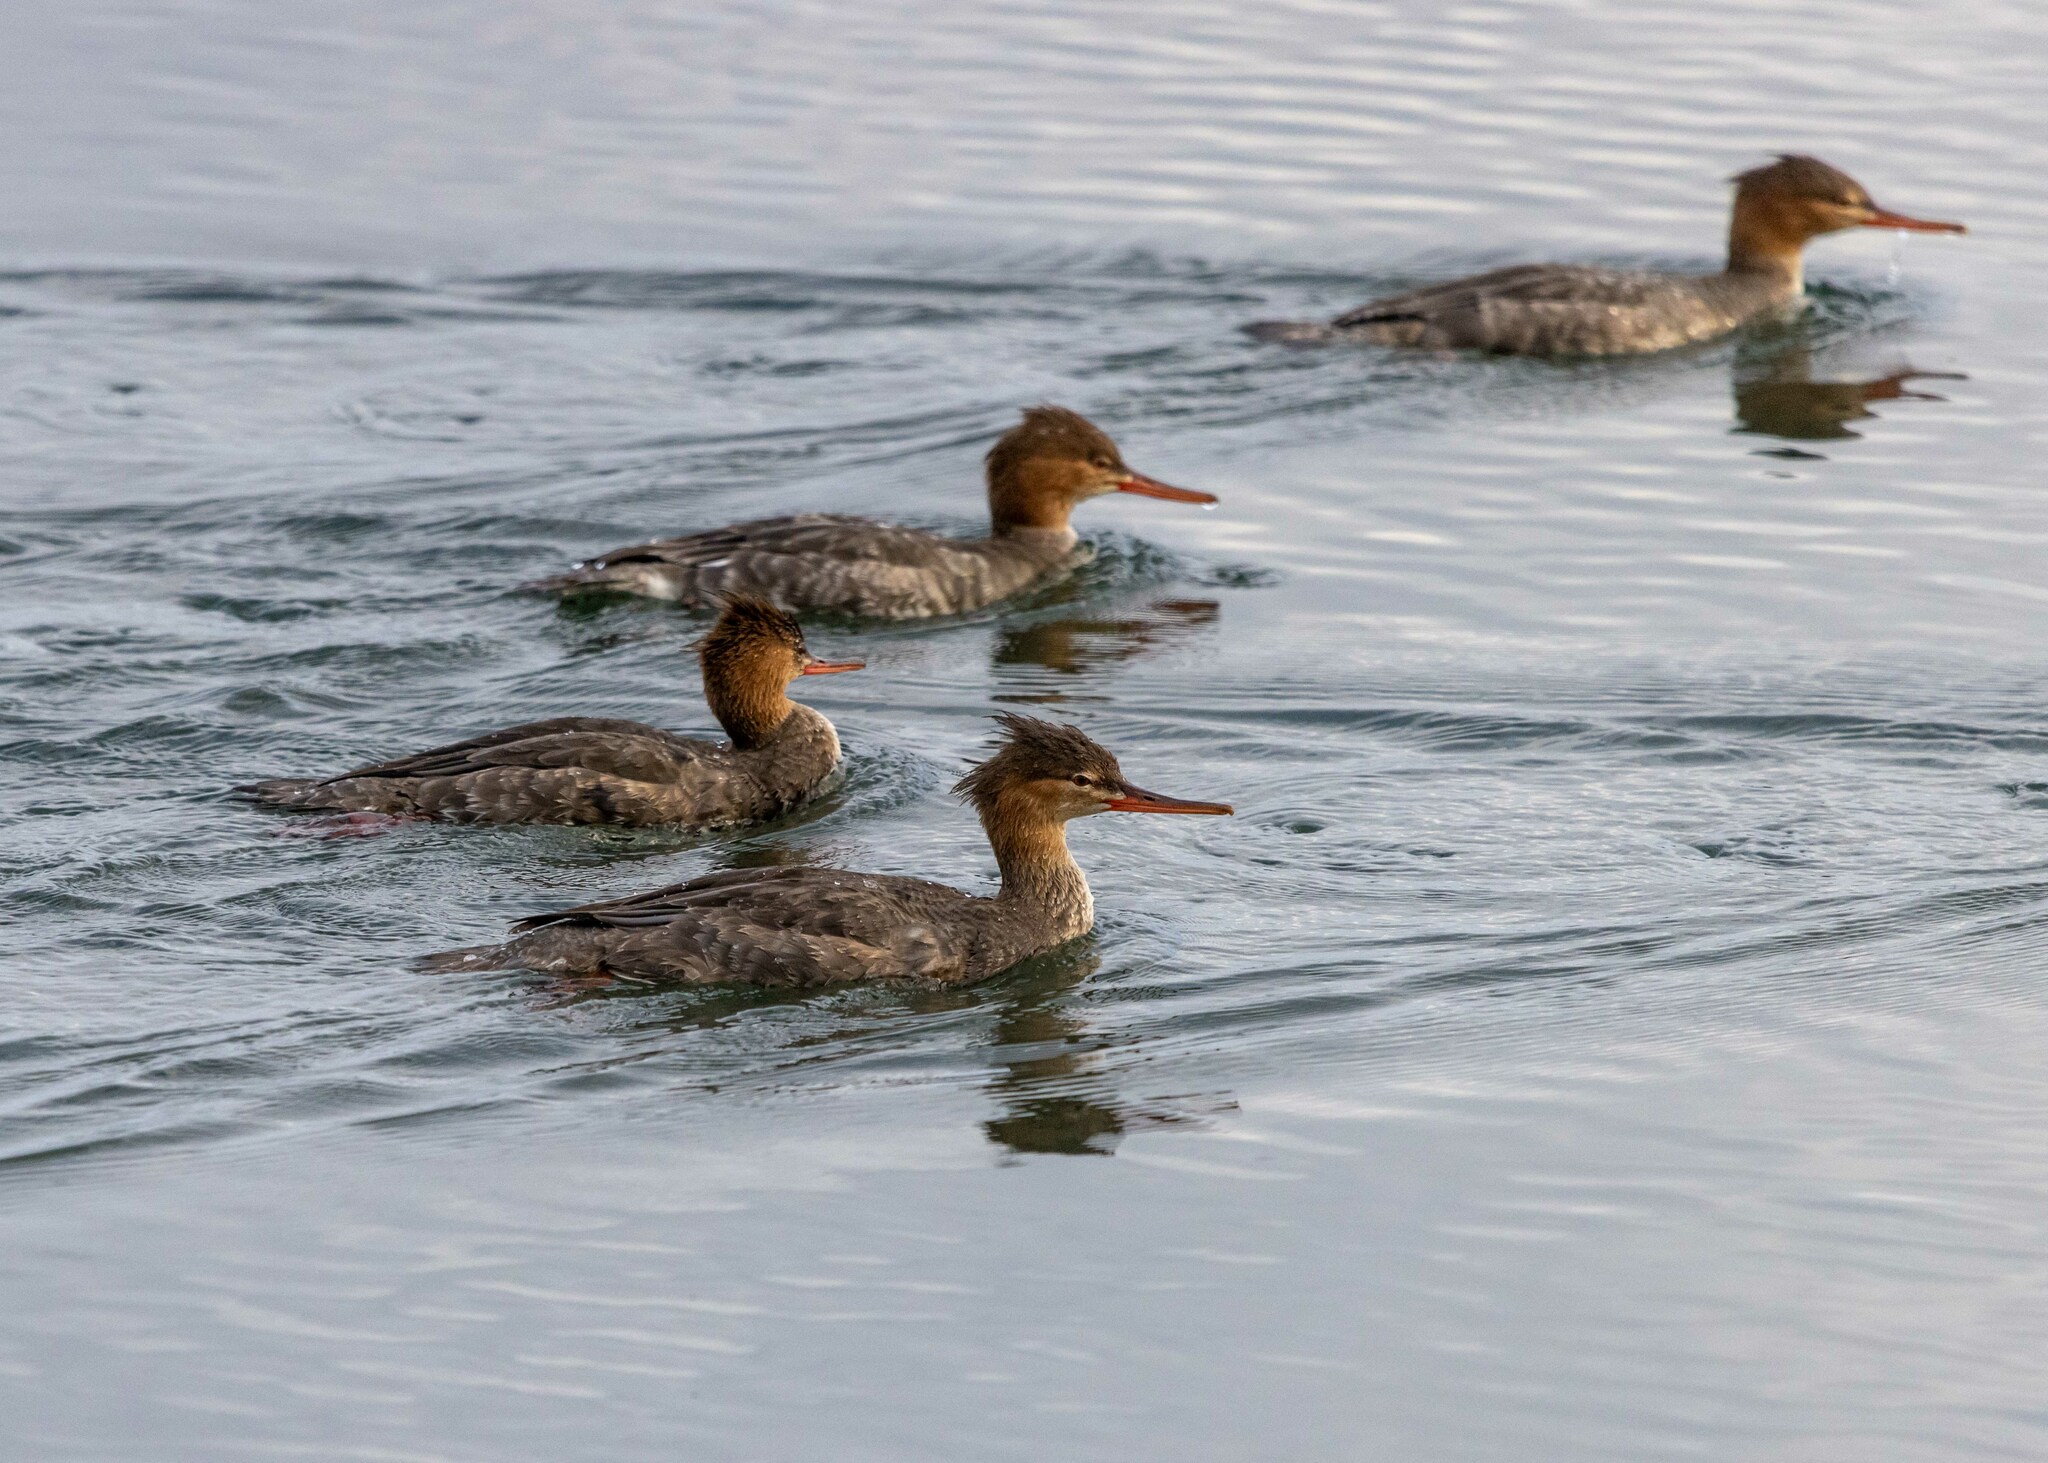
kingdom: Animalia
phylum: Chordata
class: Aves
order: Anseriformes
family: Anatidae
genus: Mergus
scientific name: Mergus serrator
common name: Red-breasted merganser
